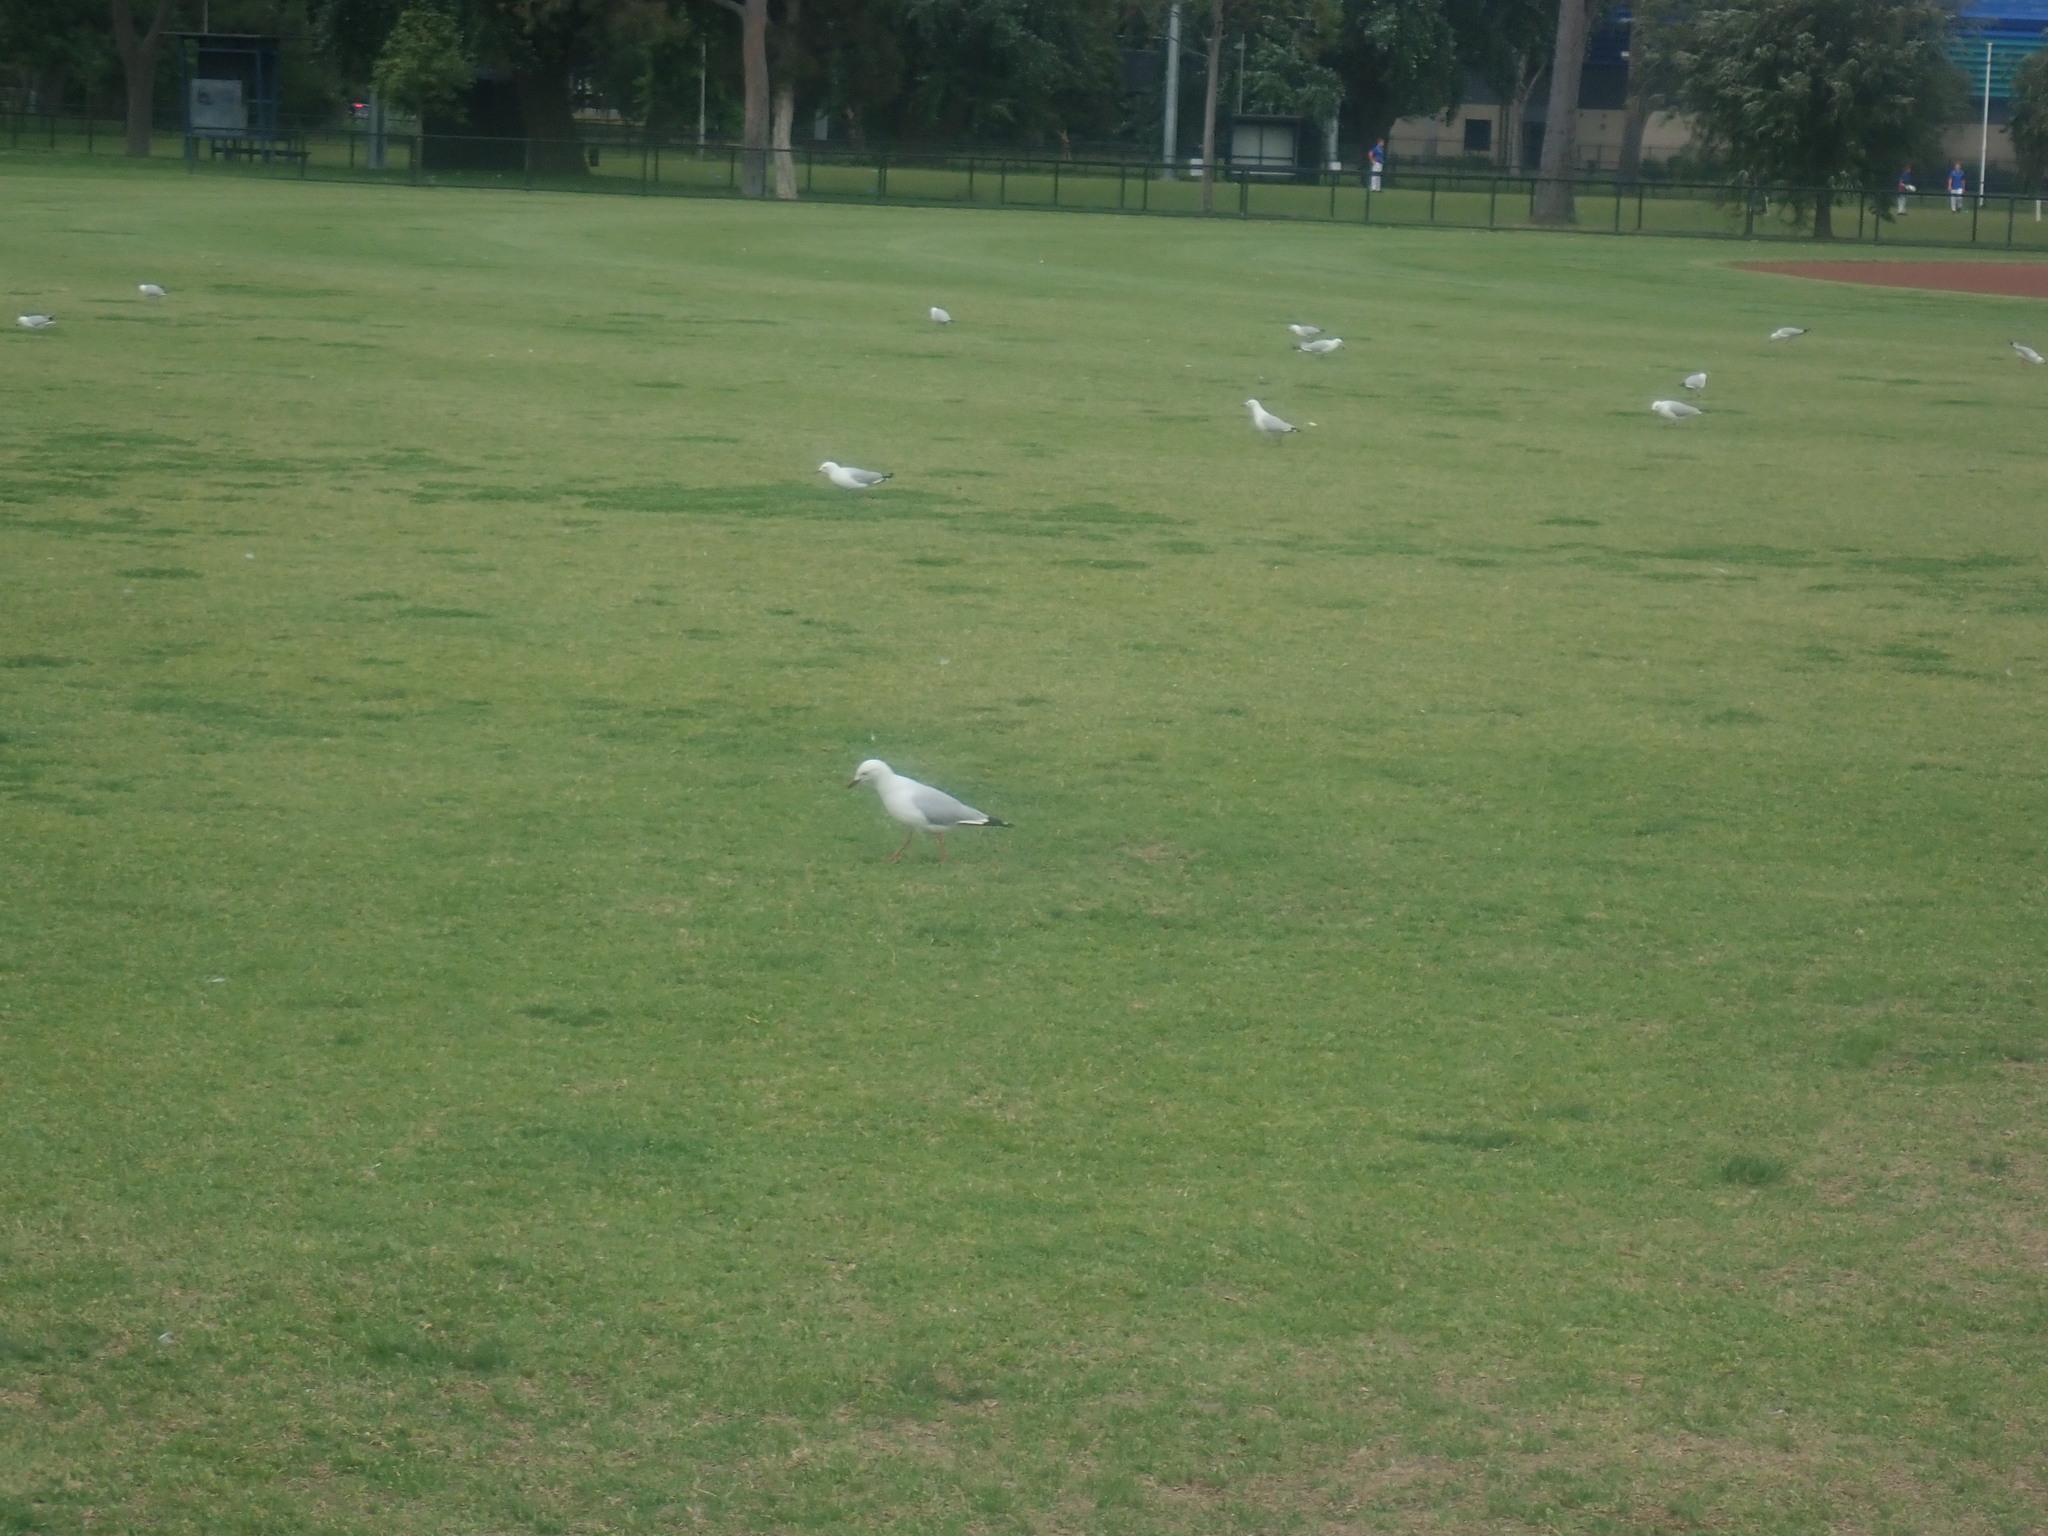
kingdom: Animalia
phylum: Chordata
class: Aves
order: Charadriiformes
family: Laridae
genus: Chroicocephalus
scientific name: Chroicocephalus novaehollandiae
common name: Silver gull
